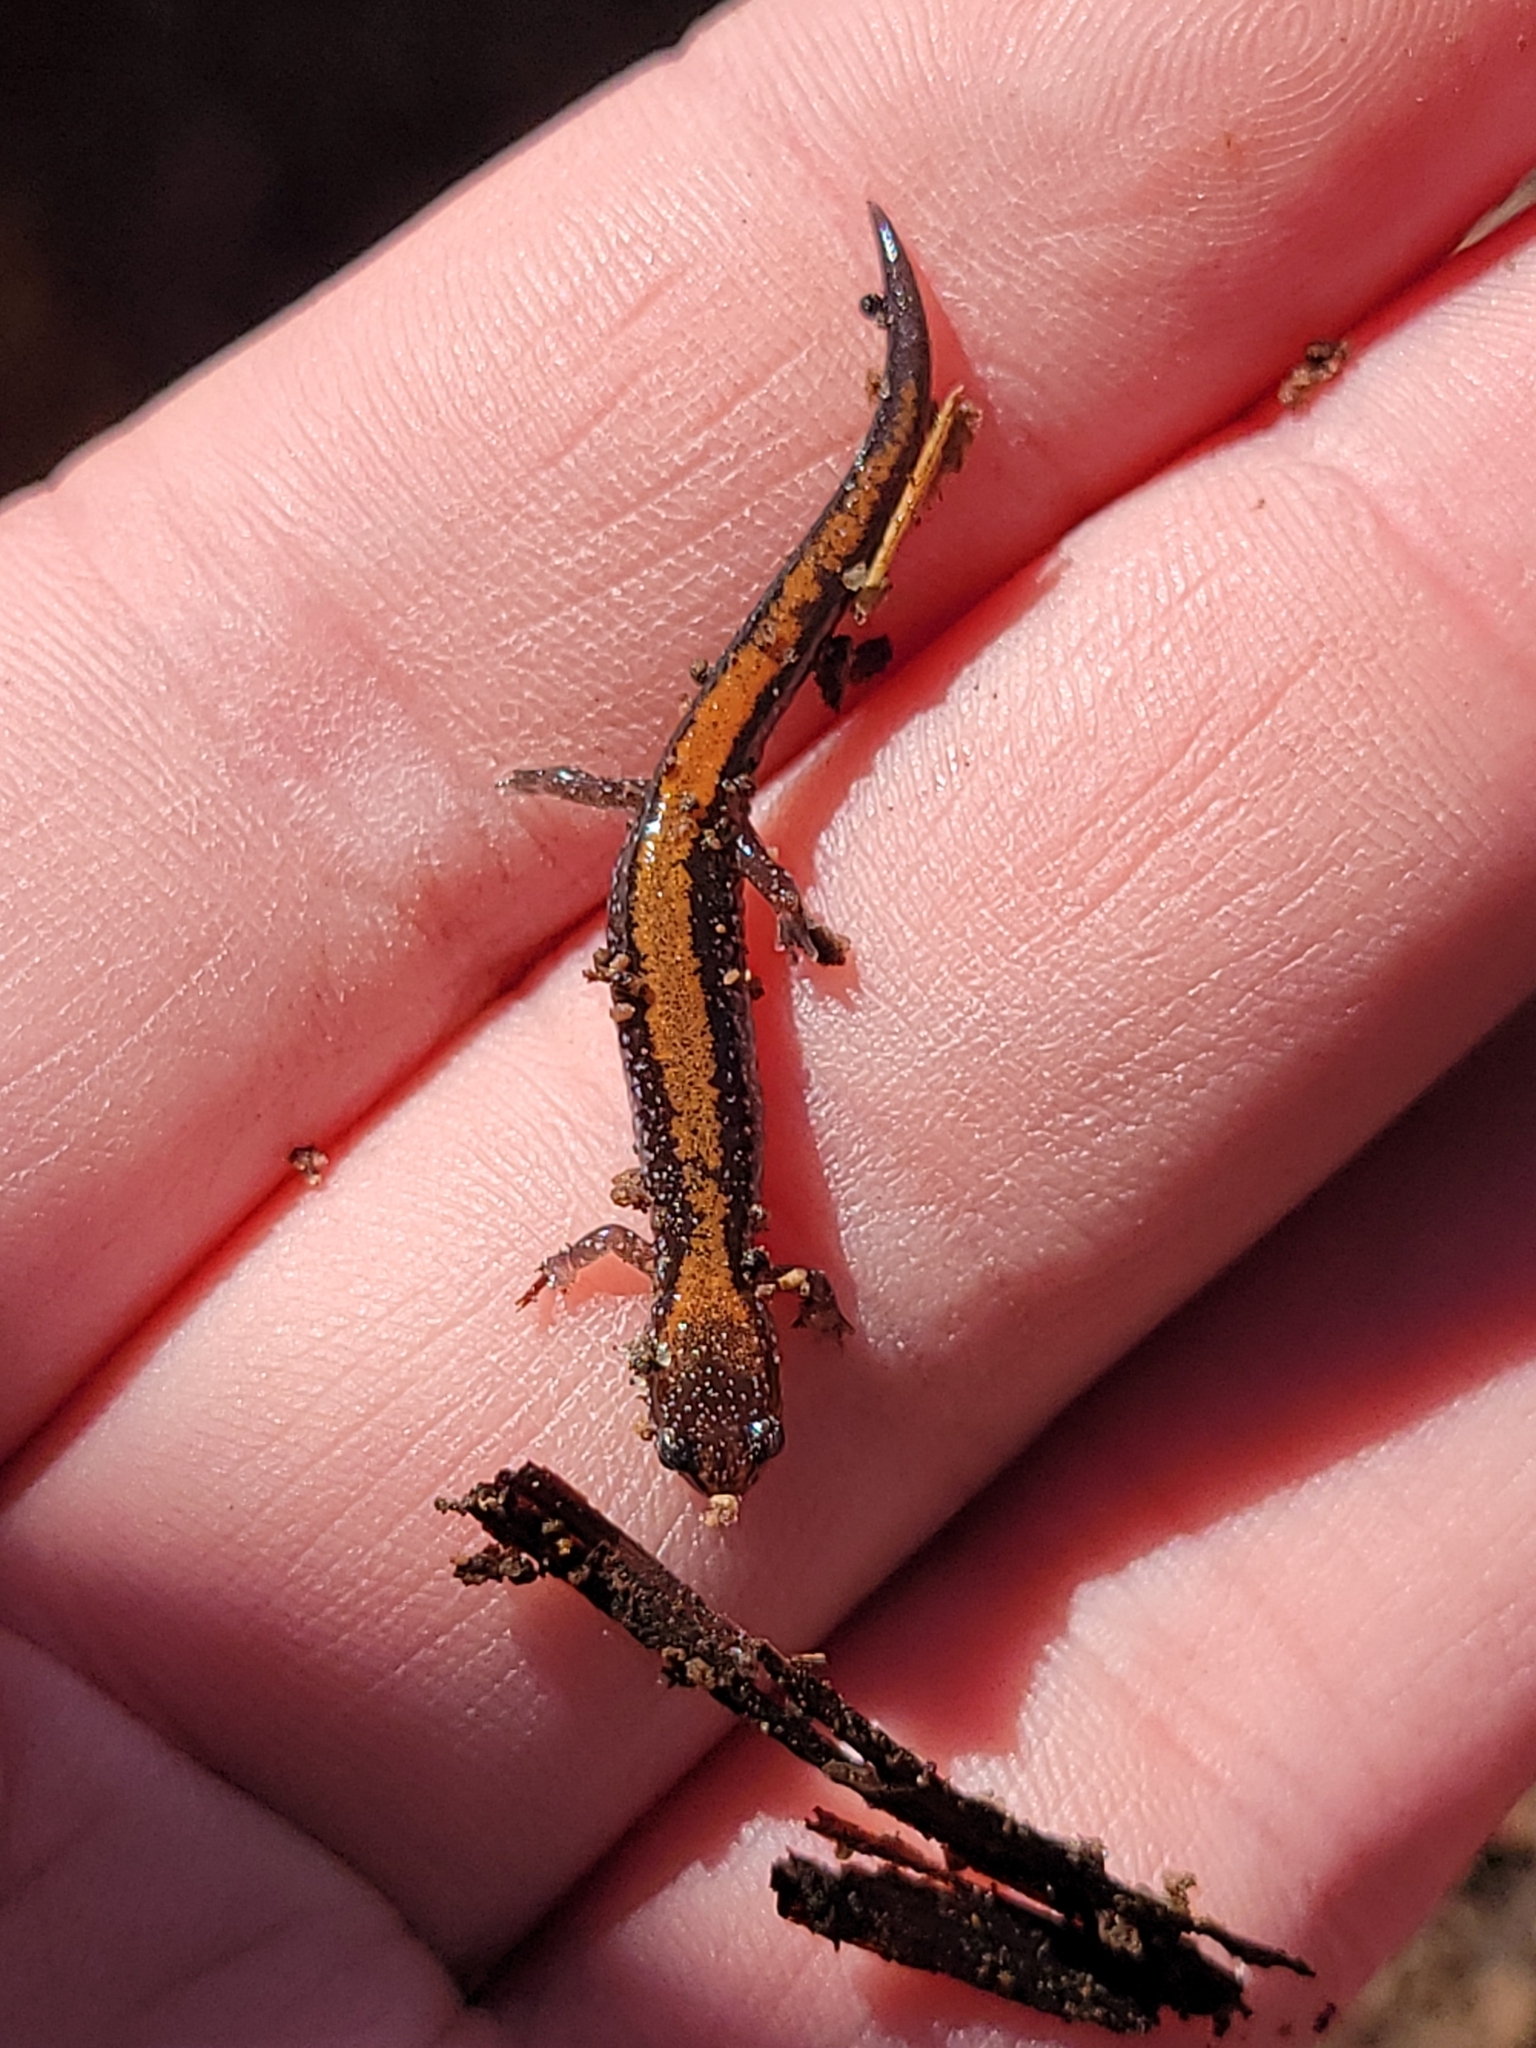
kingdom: Animalia
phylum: Chordata
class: Amphibia
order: Caudata
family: Plethodontidae
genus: Plethodon
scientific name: Plethodon cinereus
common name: Redback salamander
